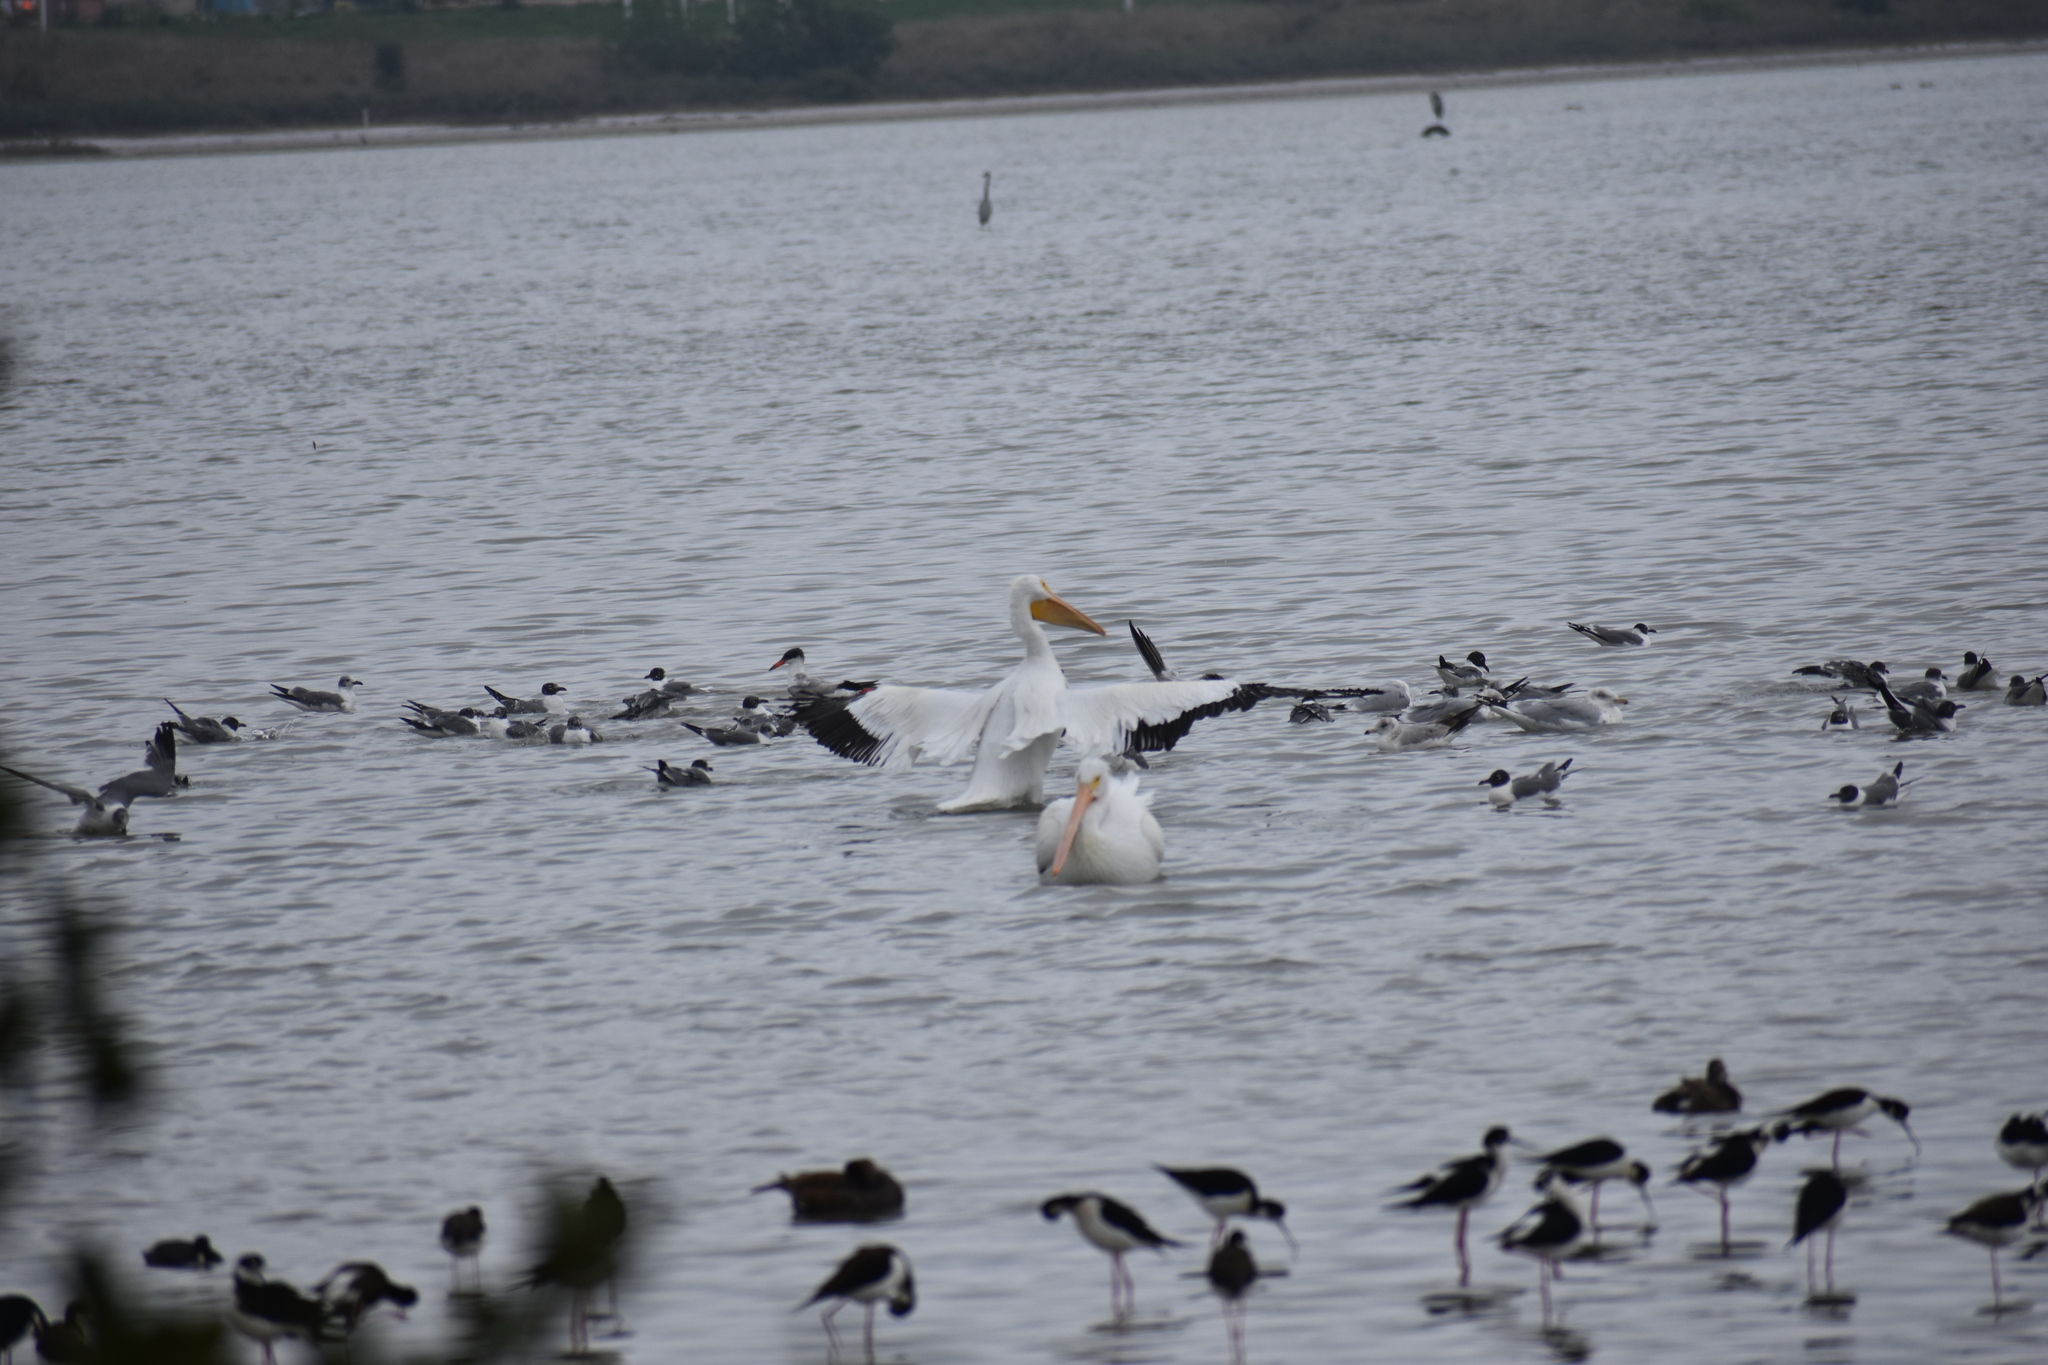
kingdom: Animalia
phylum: Chordata
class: Aves
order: Charadriiformes
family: Laridae
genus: Leucophaeus
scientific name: Leucophaeus atricilla
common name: Laughing gull
